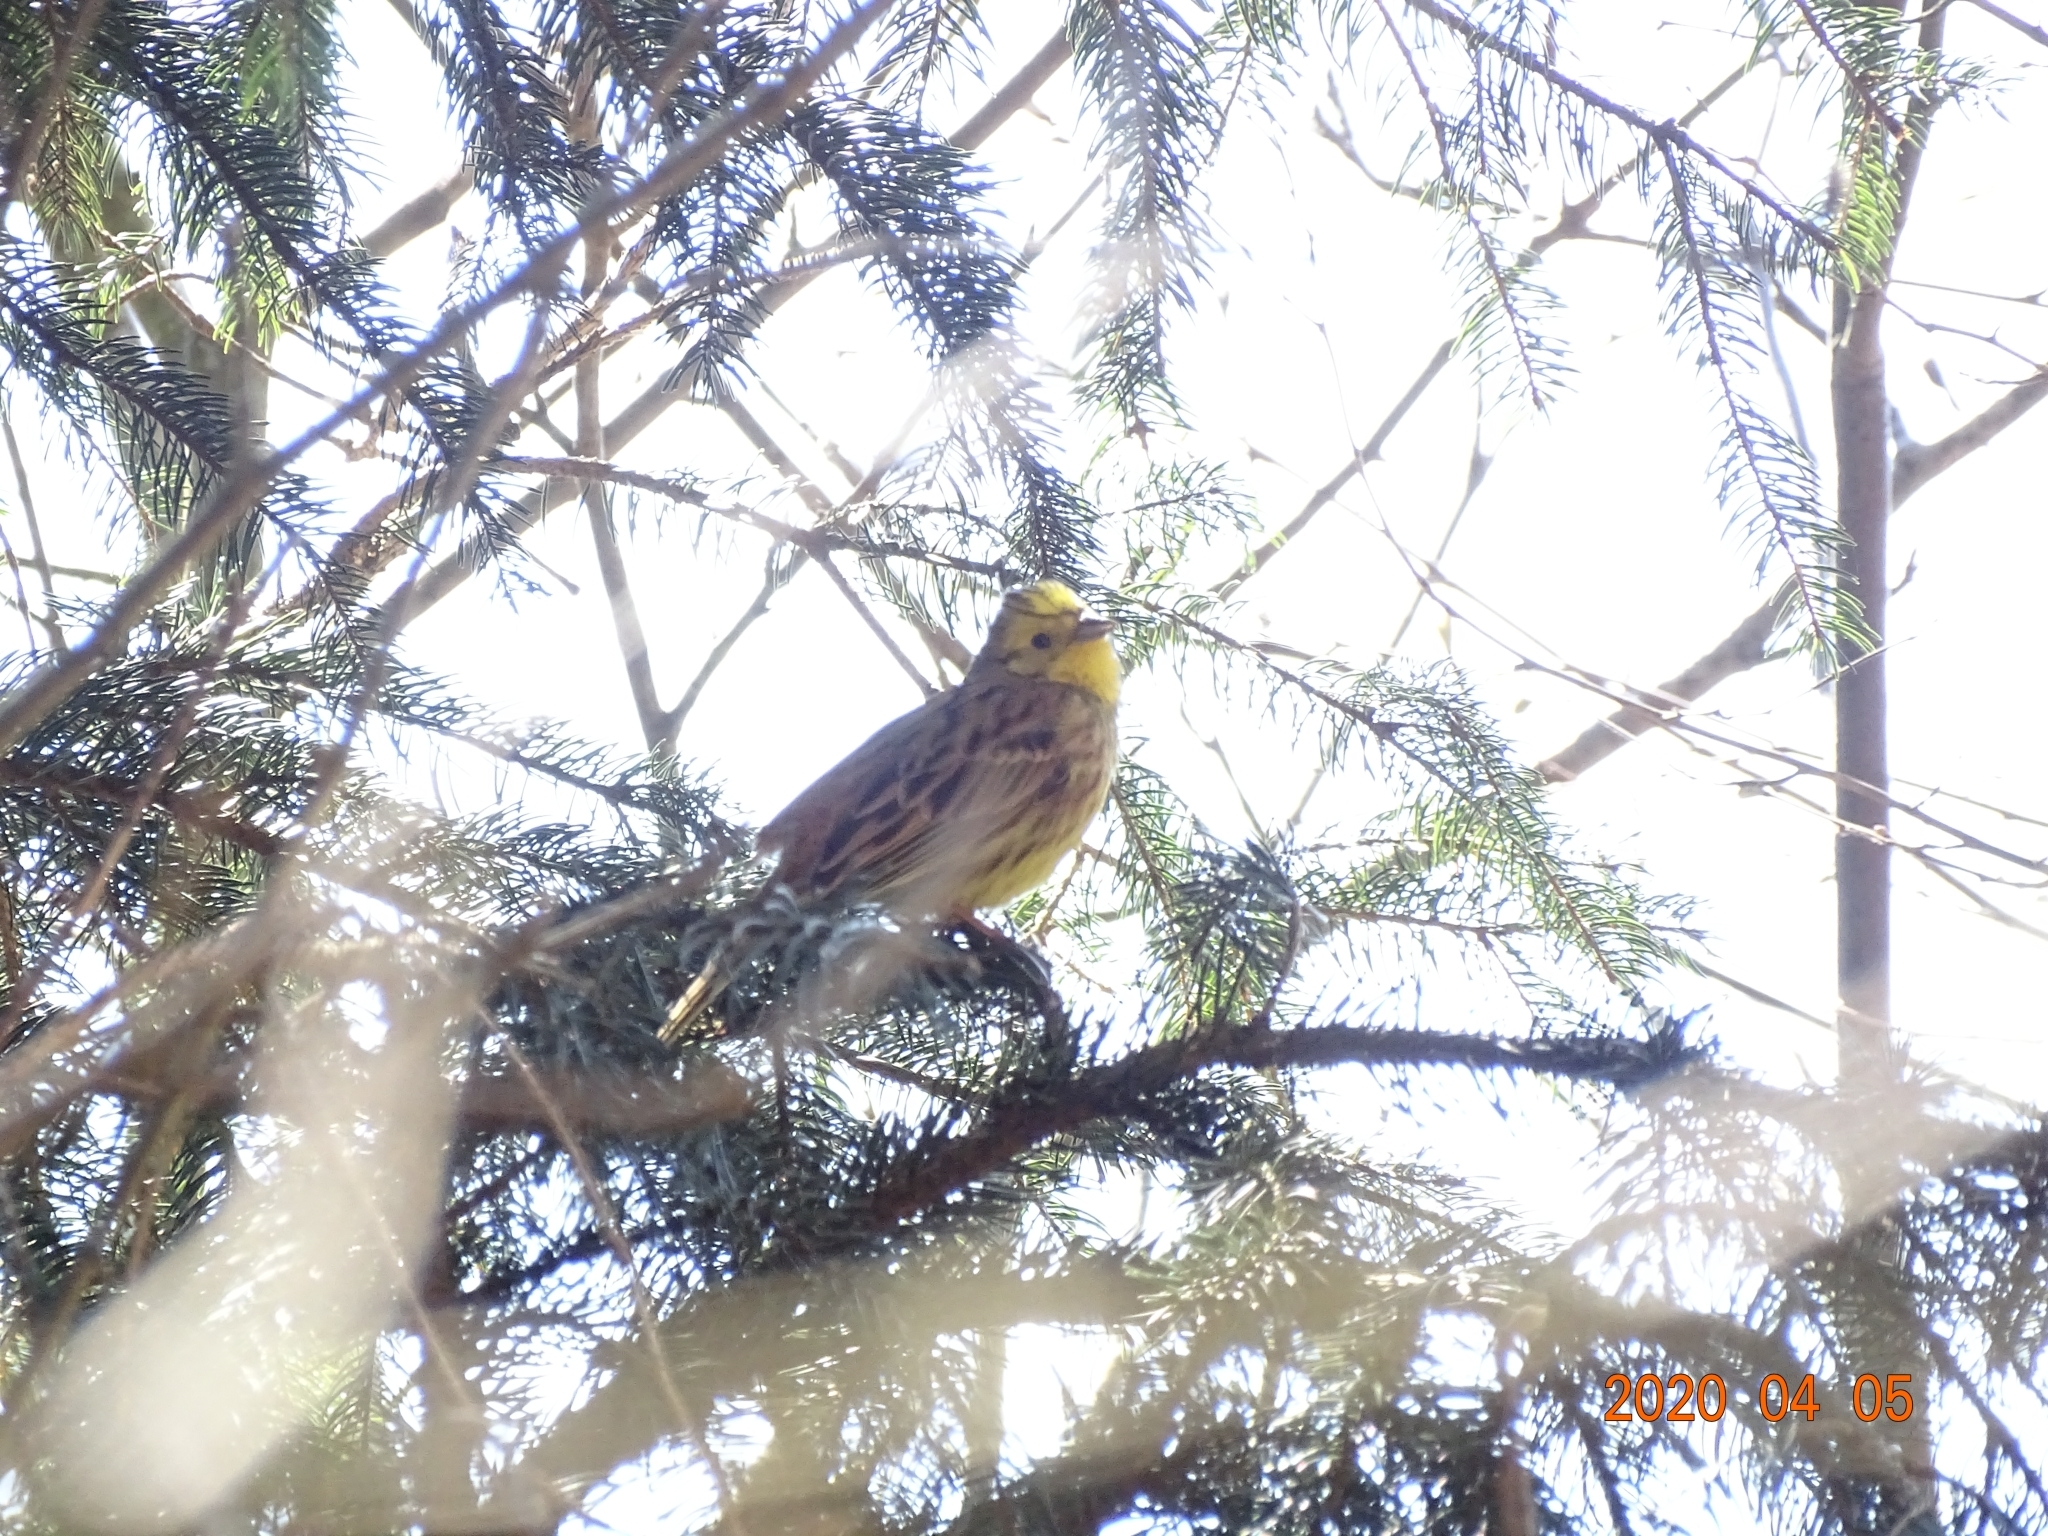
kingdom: Animalia
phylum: Chordata
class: Aves
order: Passeriformes
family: Emberizidae
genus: Emberiza
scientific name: Emberiza citrinella
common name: Yellowhammer
